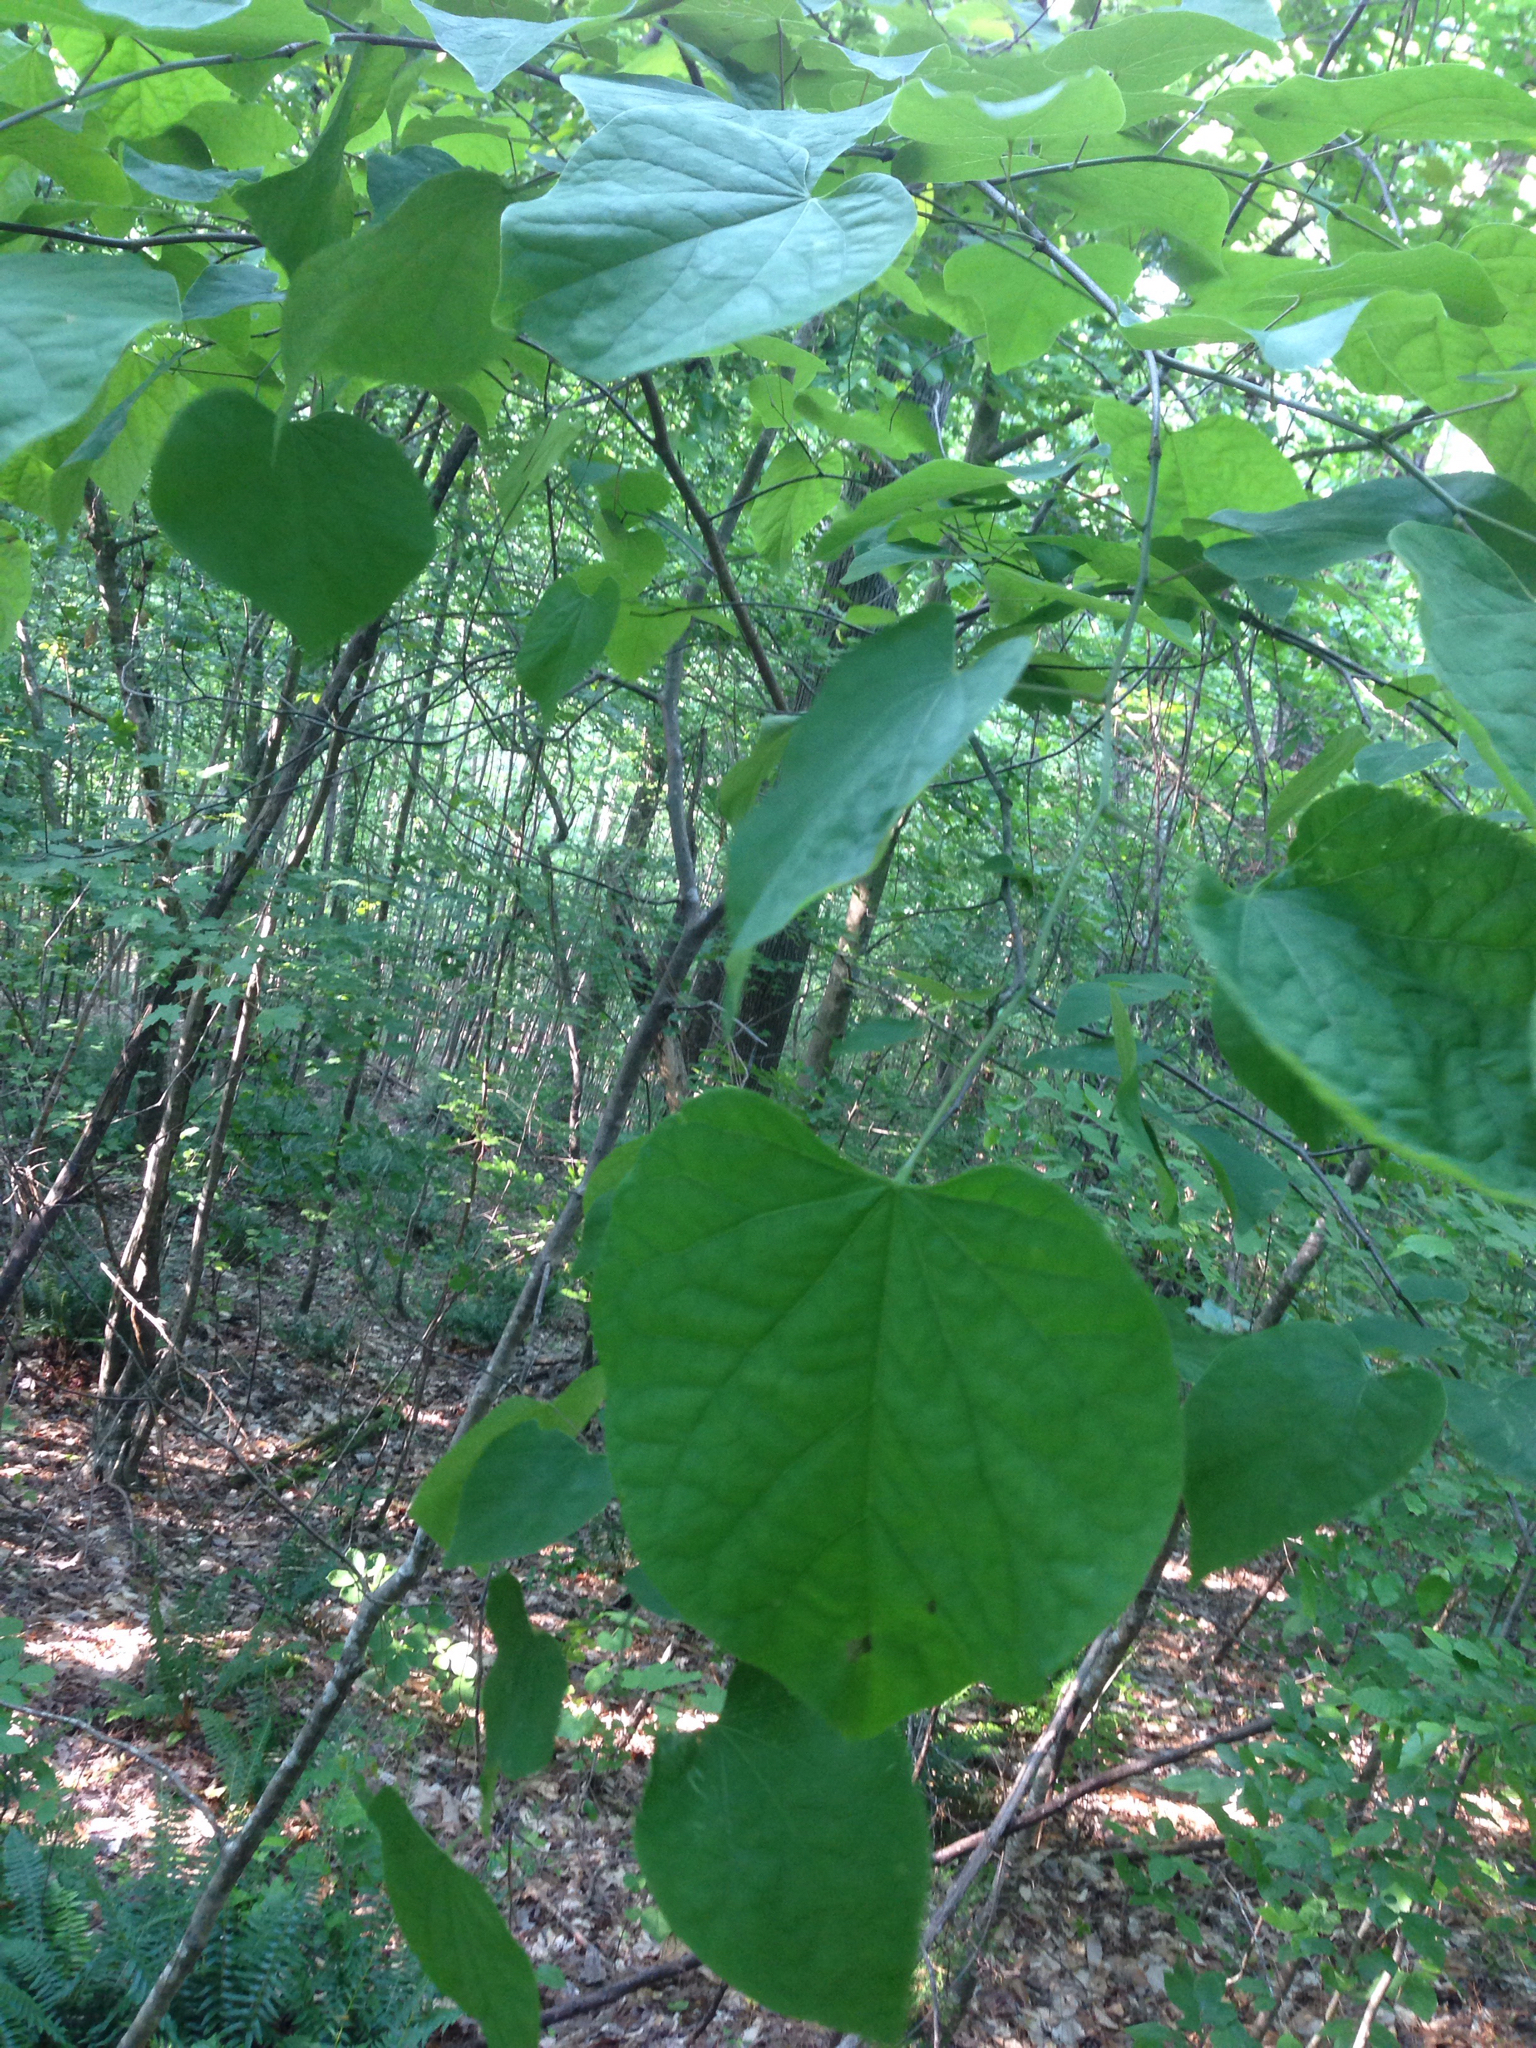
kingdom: Plantae
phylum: Tracheophyta
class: Magnoliopsida
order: Fabales
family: Fabaceae
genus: Cercis
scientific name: Cercis canadensis
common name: Eastern redbud
